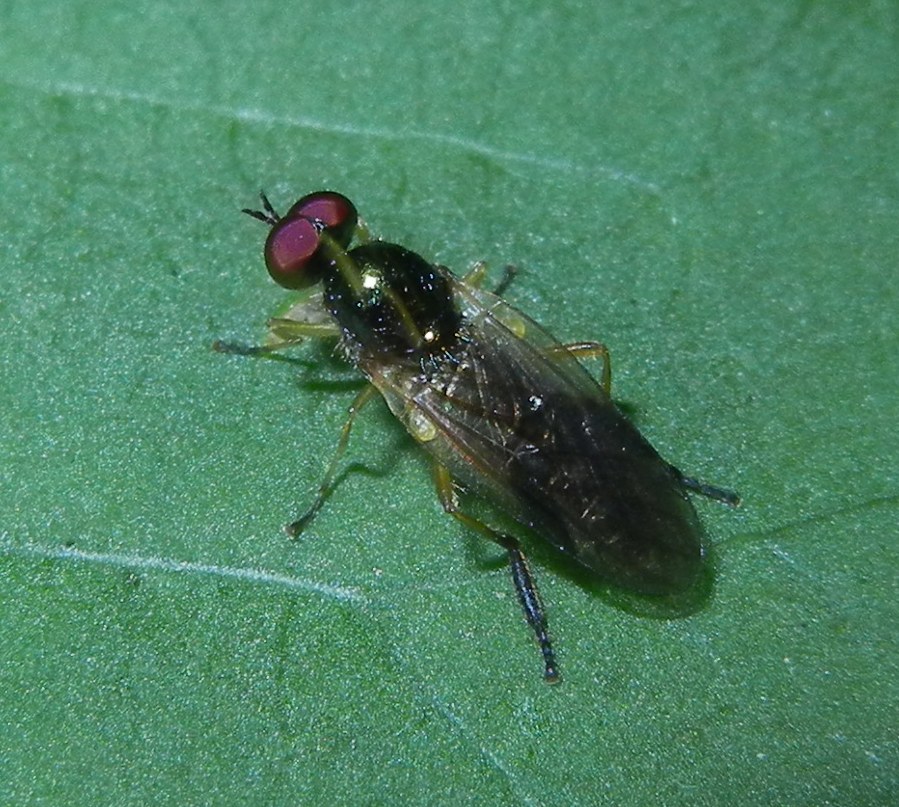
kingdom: Animalia
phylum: Arthropoda
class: Insecta
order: Diptera
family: Stratiomyidae
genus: Beris
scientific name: Beris morrisii
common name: Yellow-legged black legionnaire
